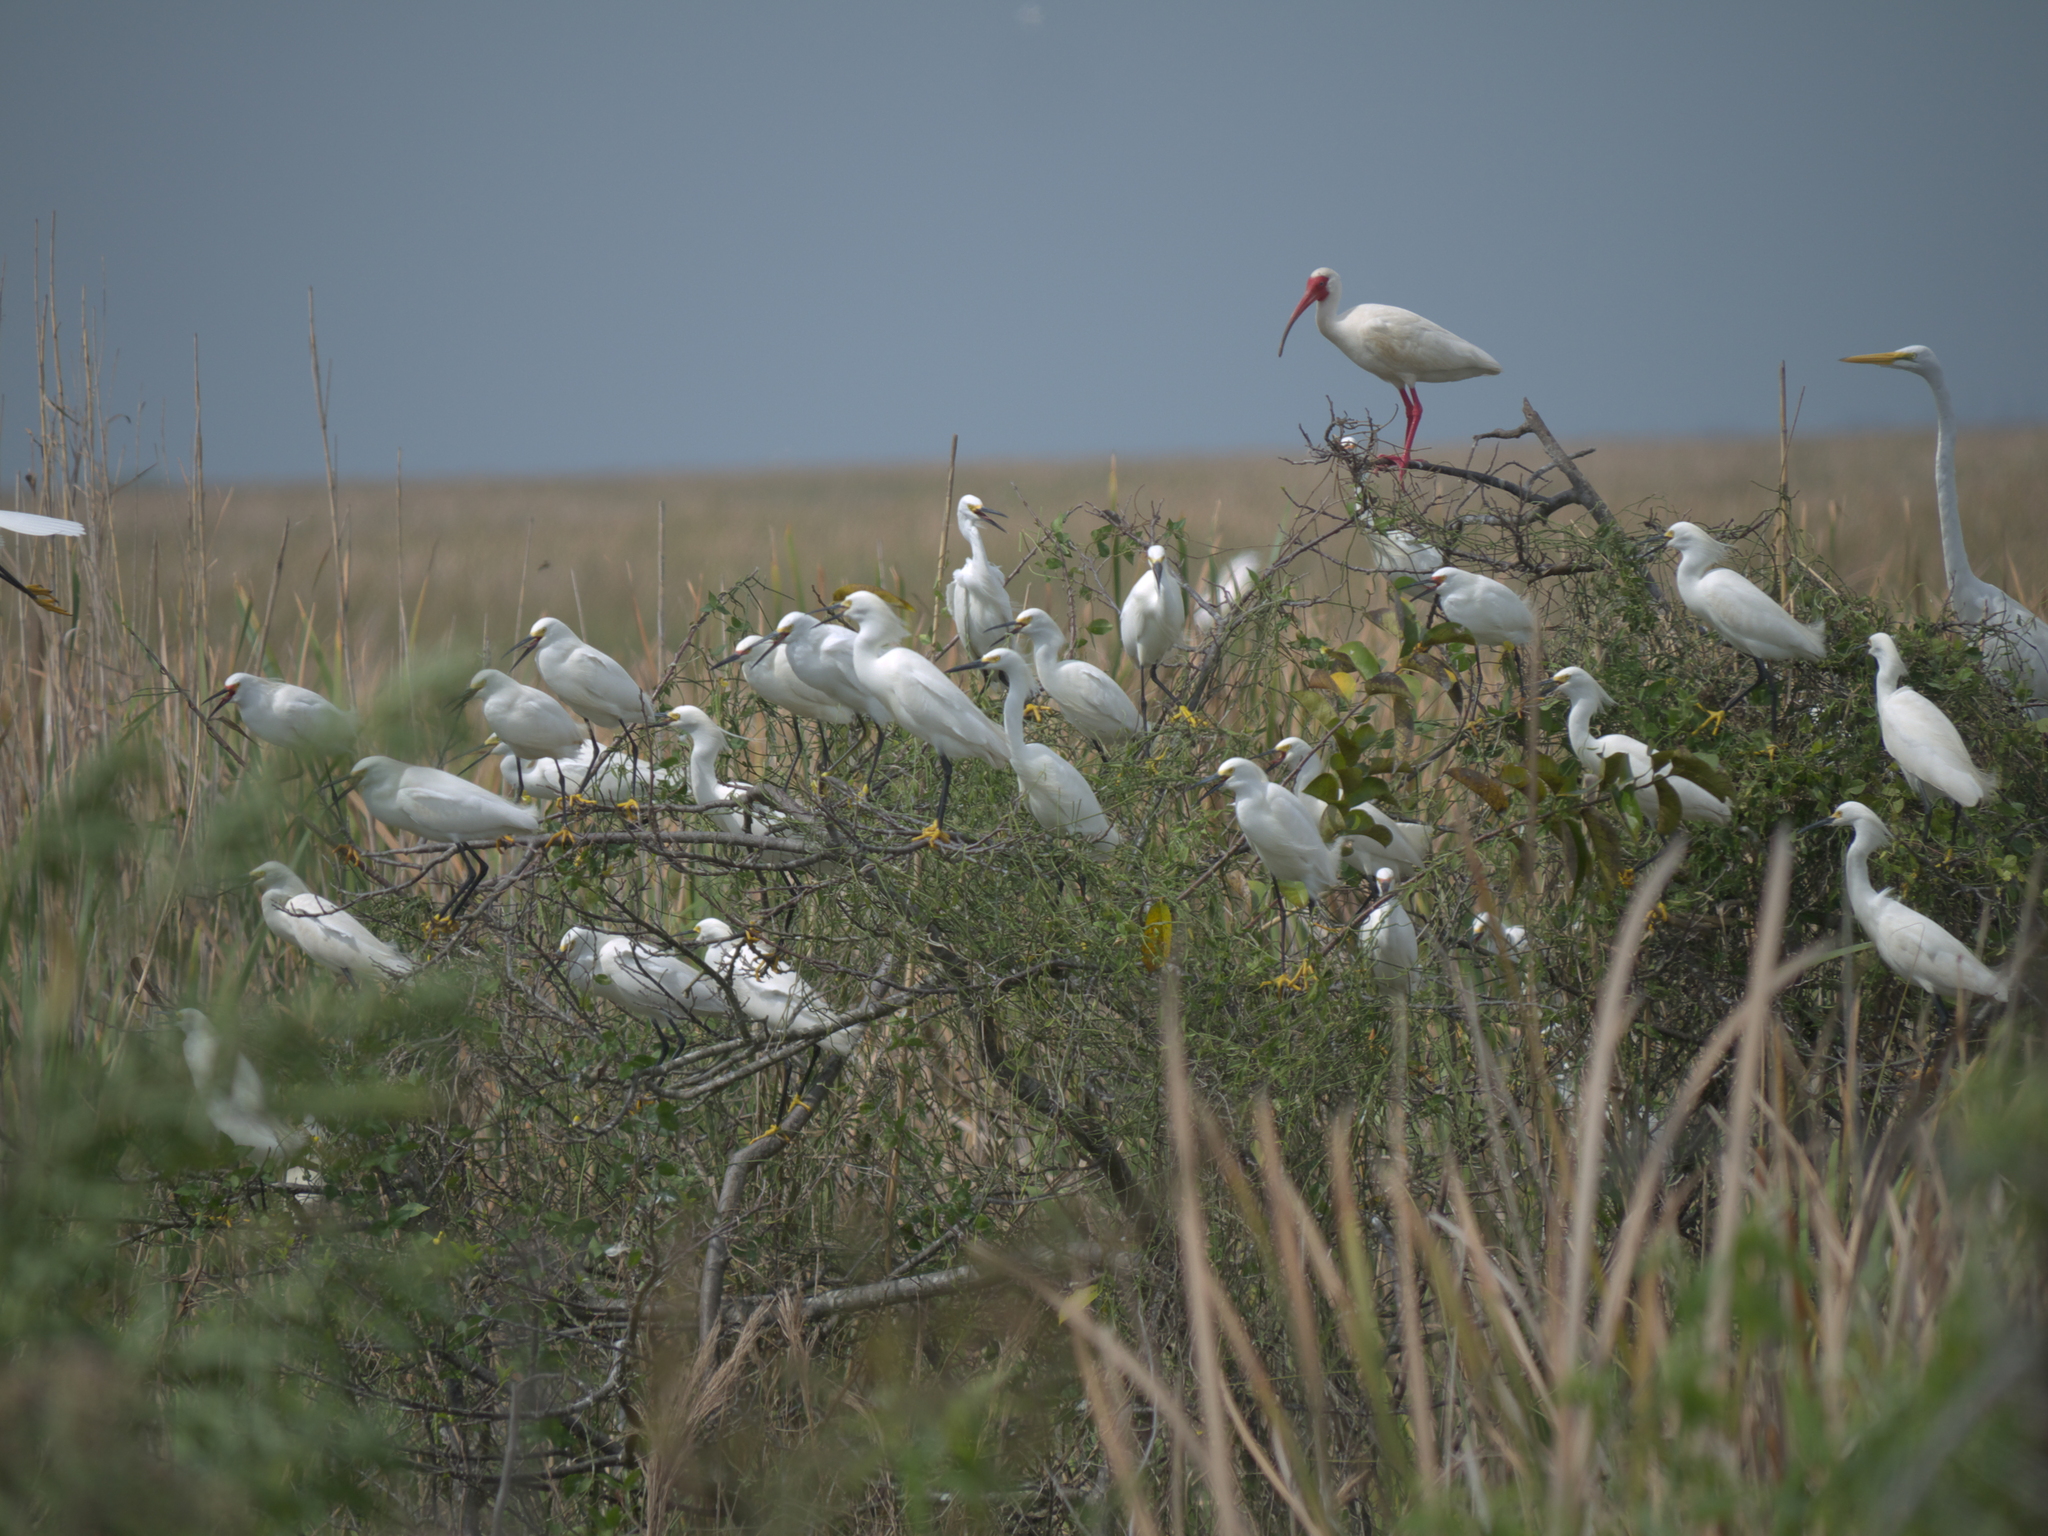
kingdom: Animalia
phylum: Chordata
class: Aves
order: Pelecaniformes
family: Ardeidae
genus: Egretta
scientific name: Egretta thula
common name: Snowy egret
